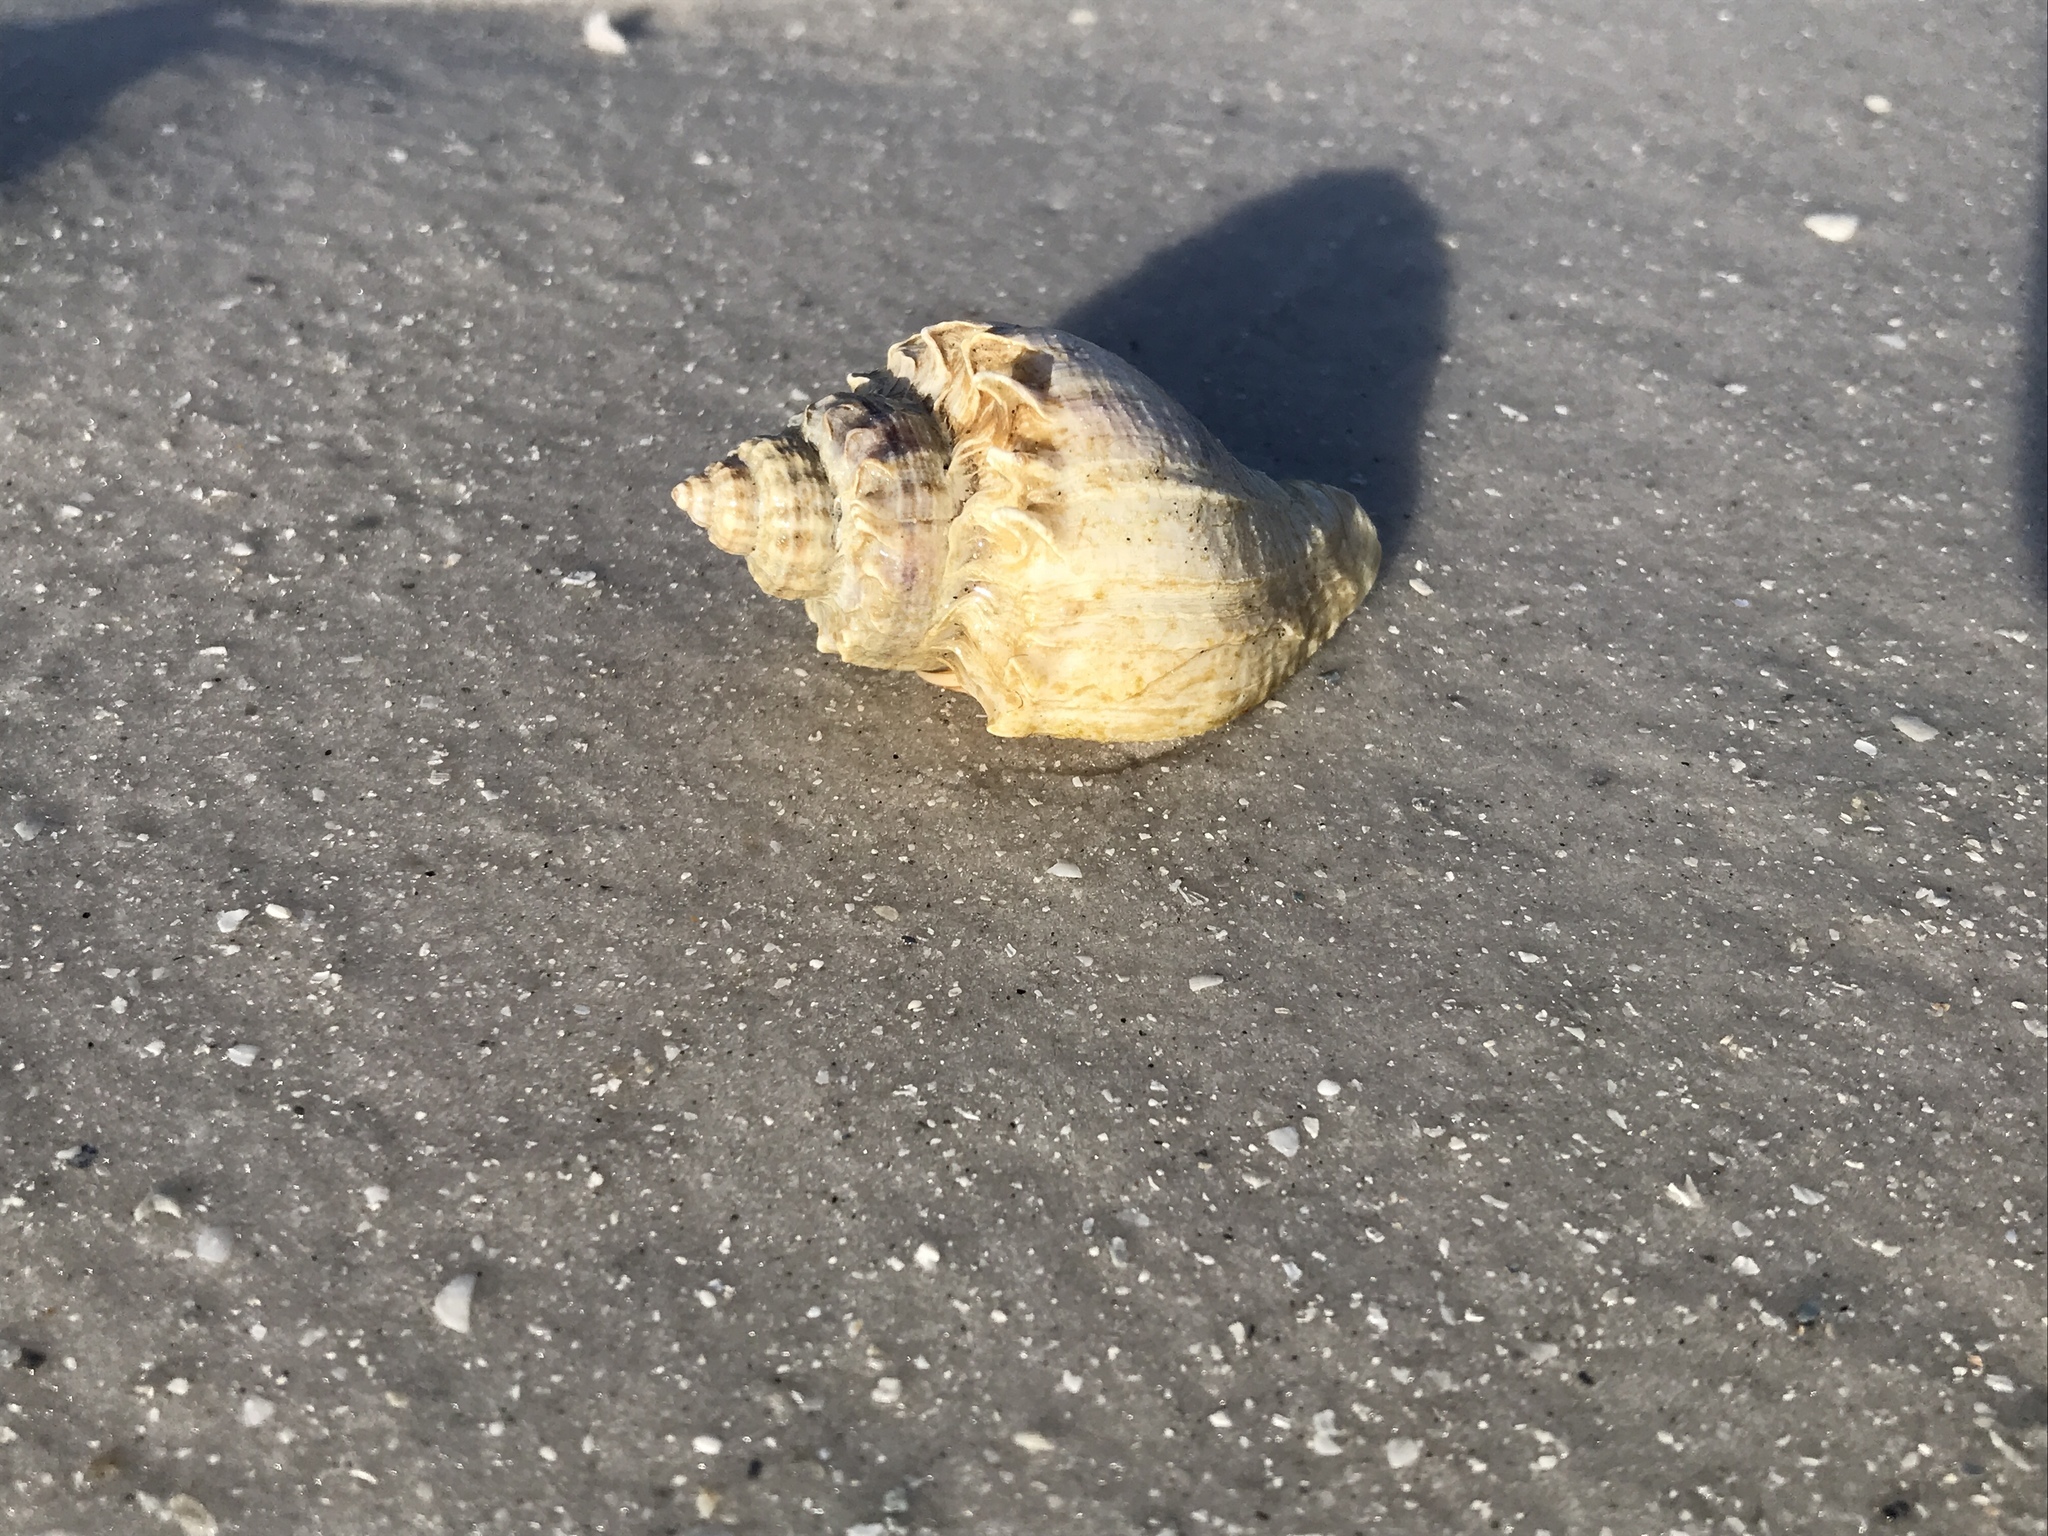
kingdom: Animalia
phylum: Mollusca
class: Gastropoda
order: Neogastropoda
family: Melongenidae
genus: Melongena
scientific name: Melongena corona
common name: American crown conch
